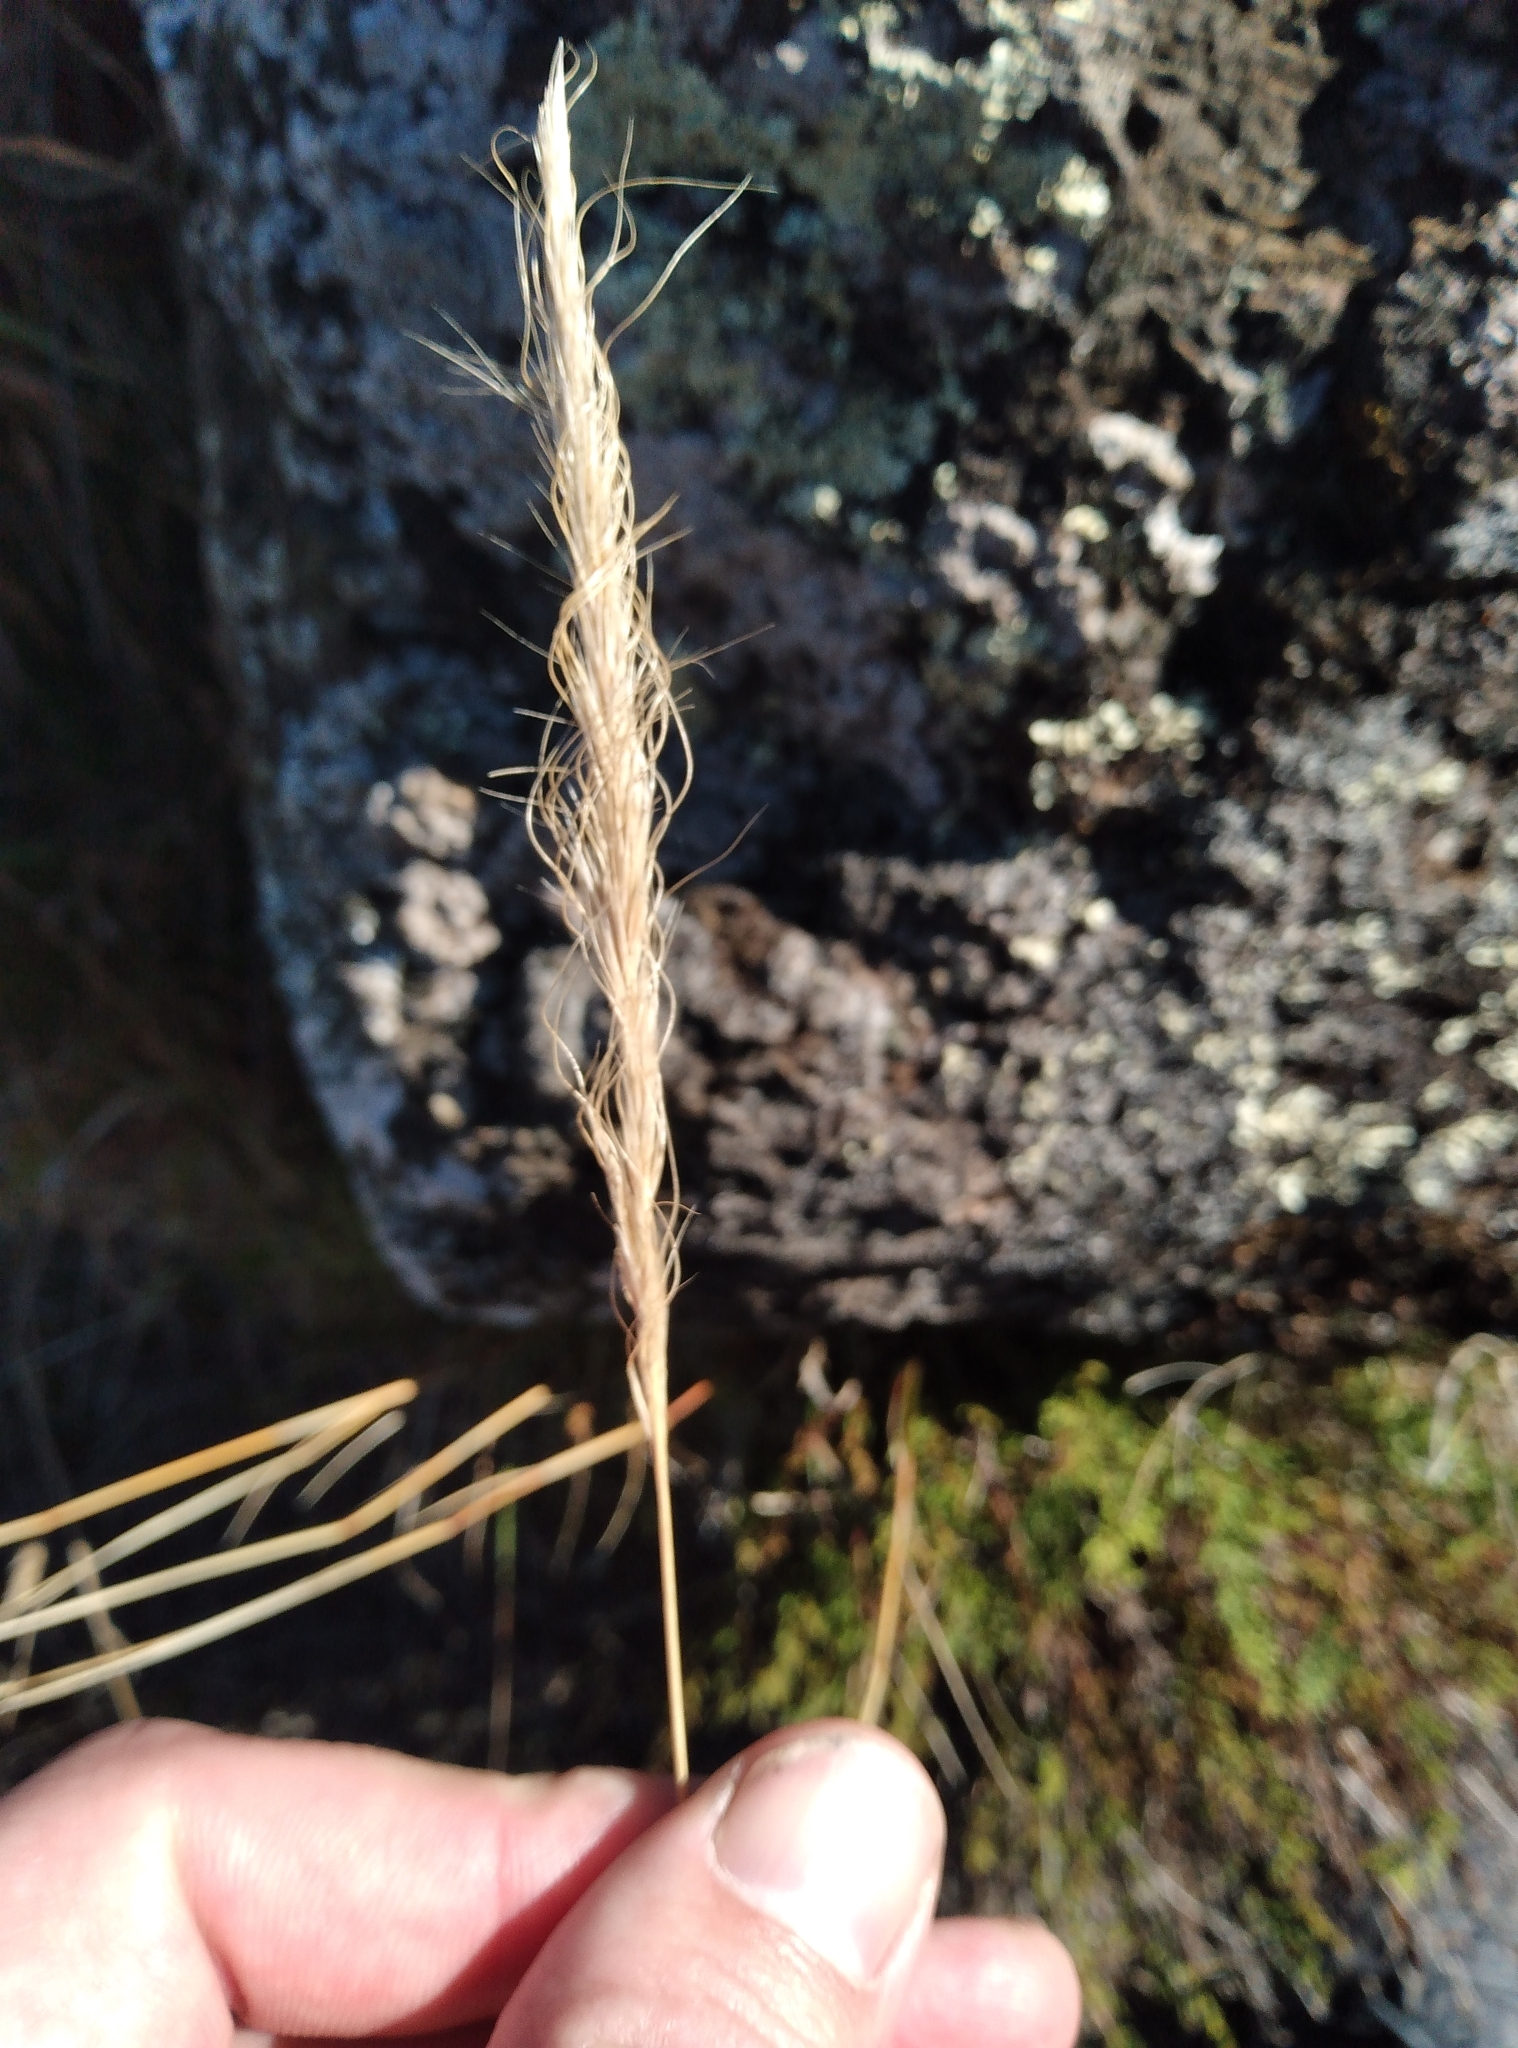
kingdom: Plantae
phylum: Tracheophyta
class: Liliopsida
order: Poales
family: Poaceae
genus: Dichelachne
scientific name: Dichelachne crinita
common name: Clovenfoot plumegrass
